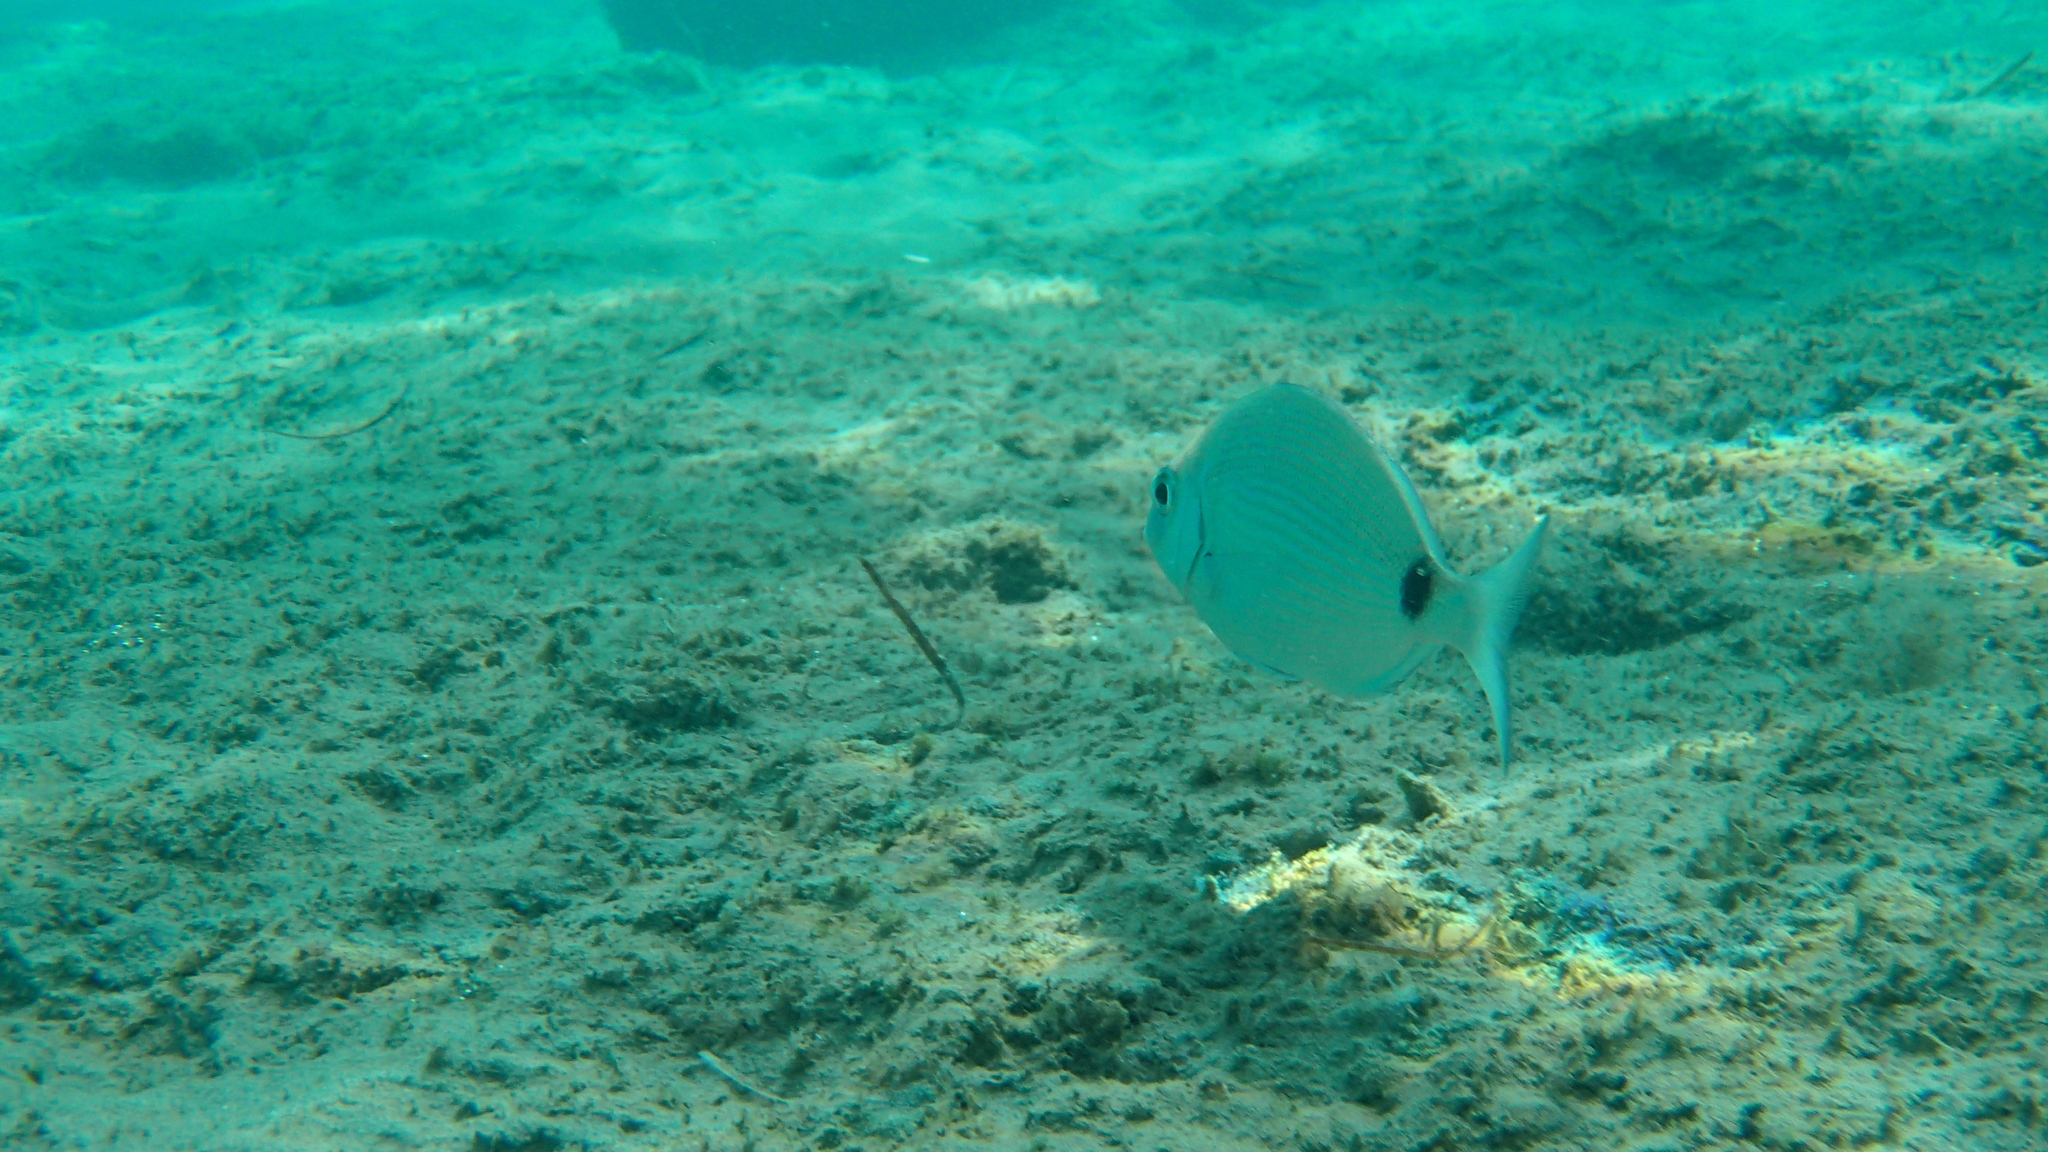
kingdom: Animalia
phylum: Chordata
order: Perciformes
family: Sparidae
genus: Diplodus
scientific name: Diplodus sargus
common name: White seabream
